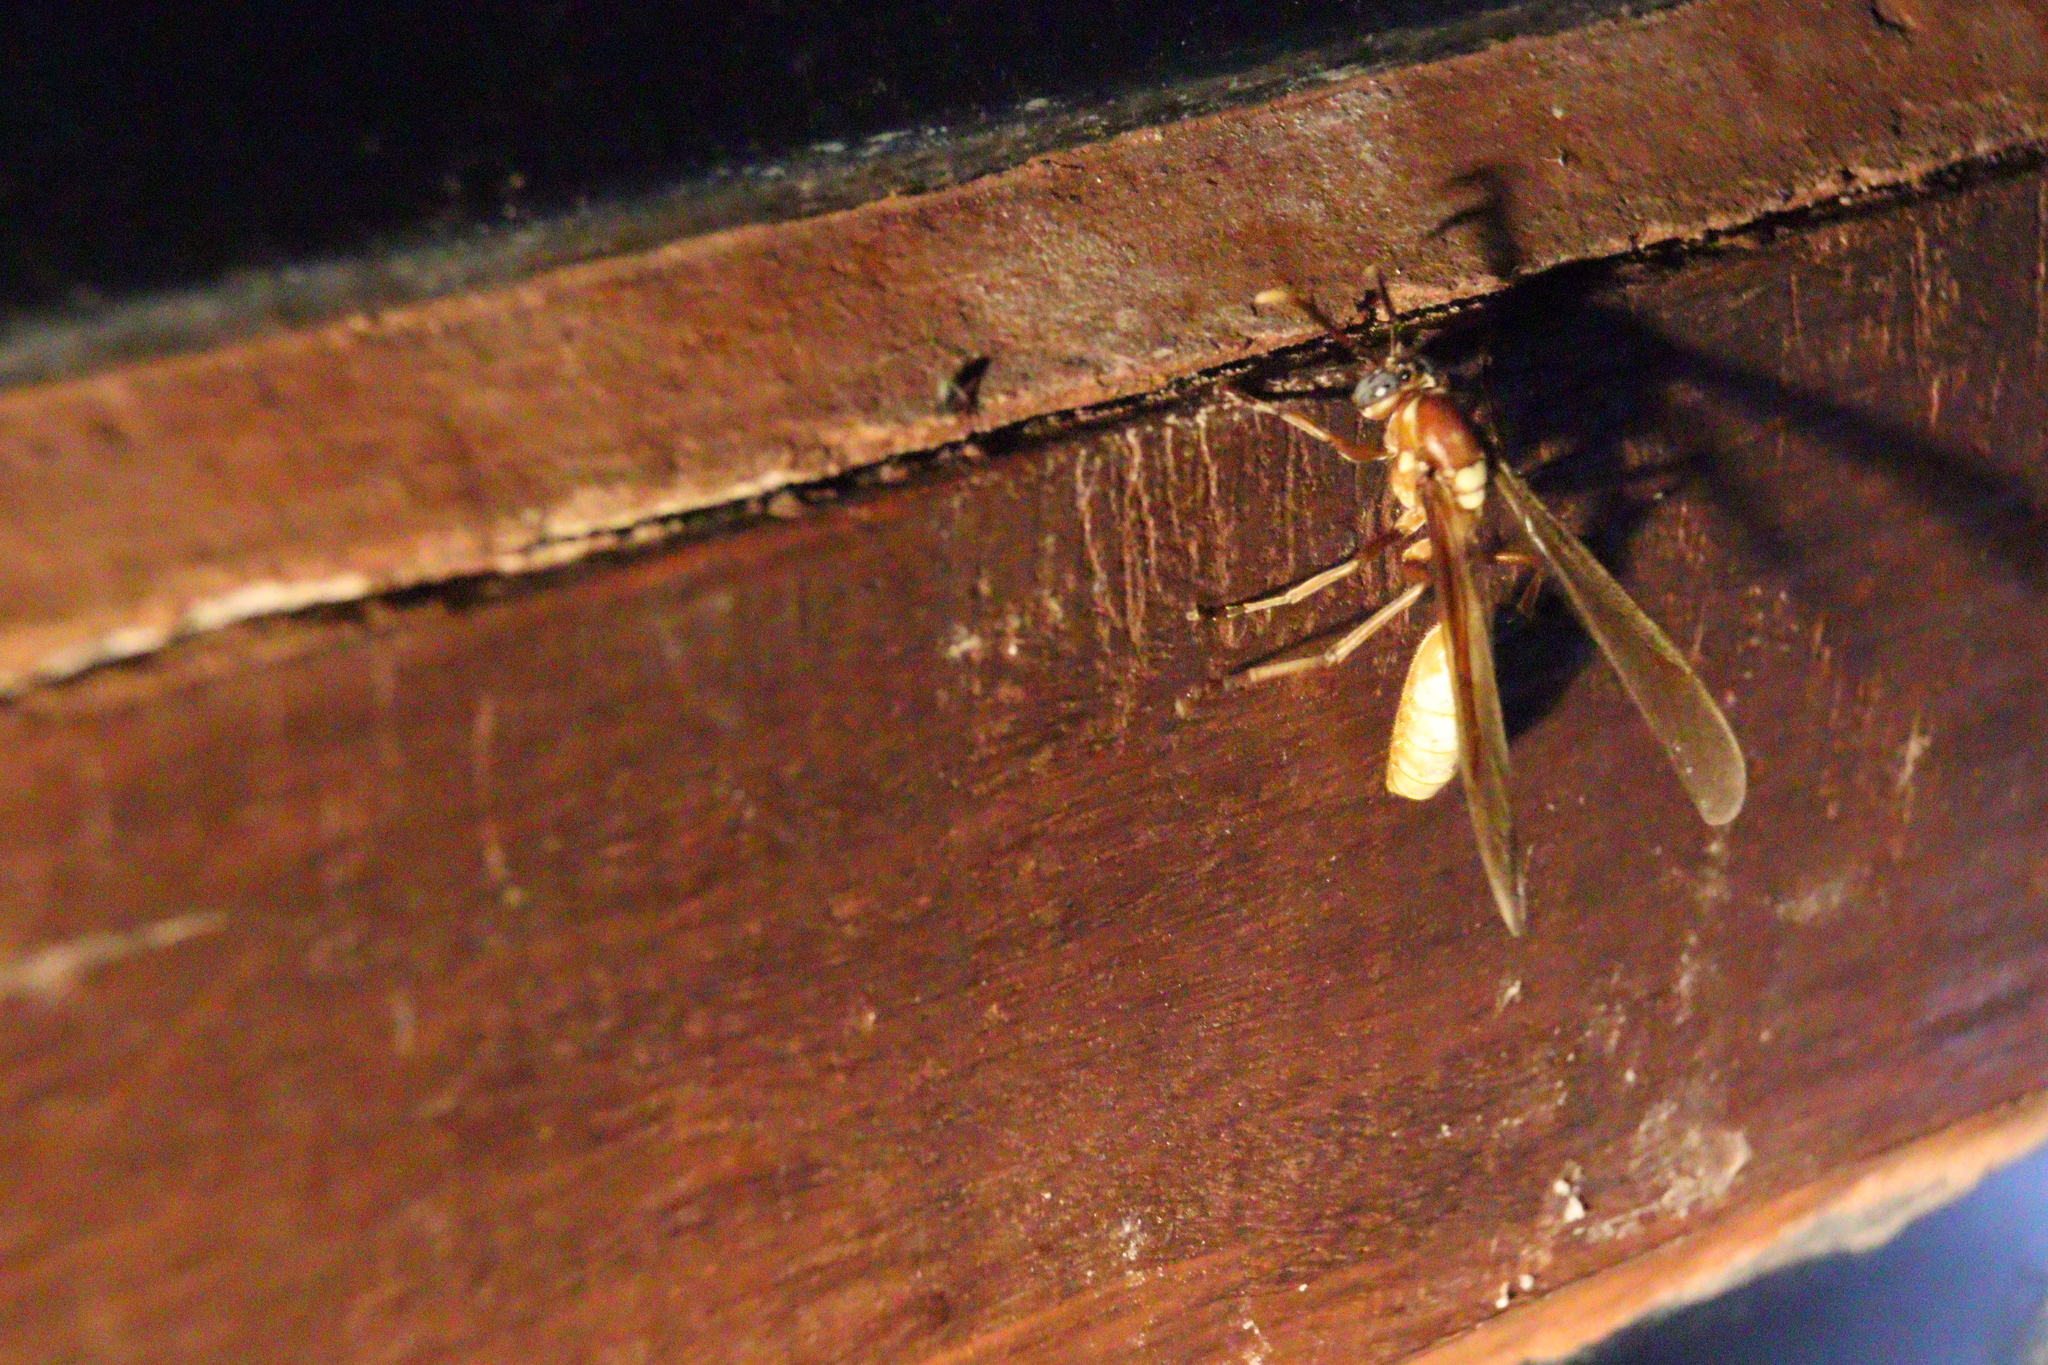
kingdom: Animalia
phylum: Arthropoda
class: Insecta
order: Hymenoptera
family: Vespidae
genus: Apoica
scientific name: Apoica gelida
